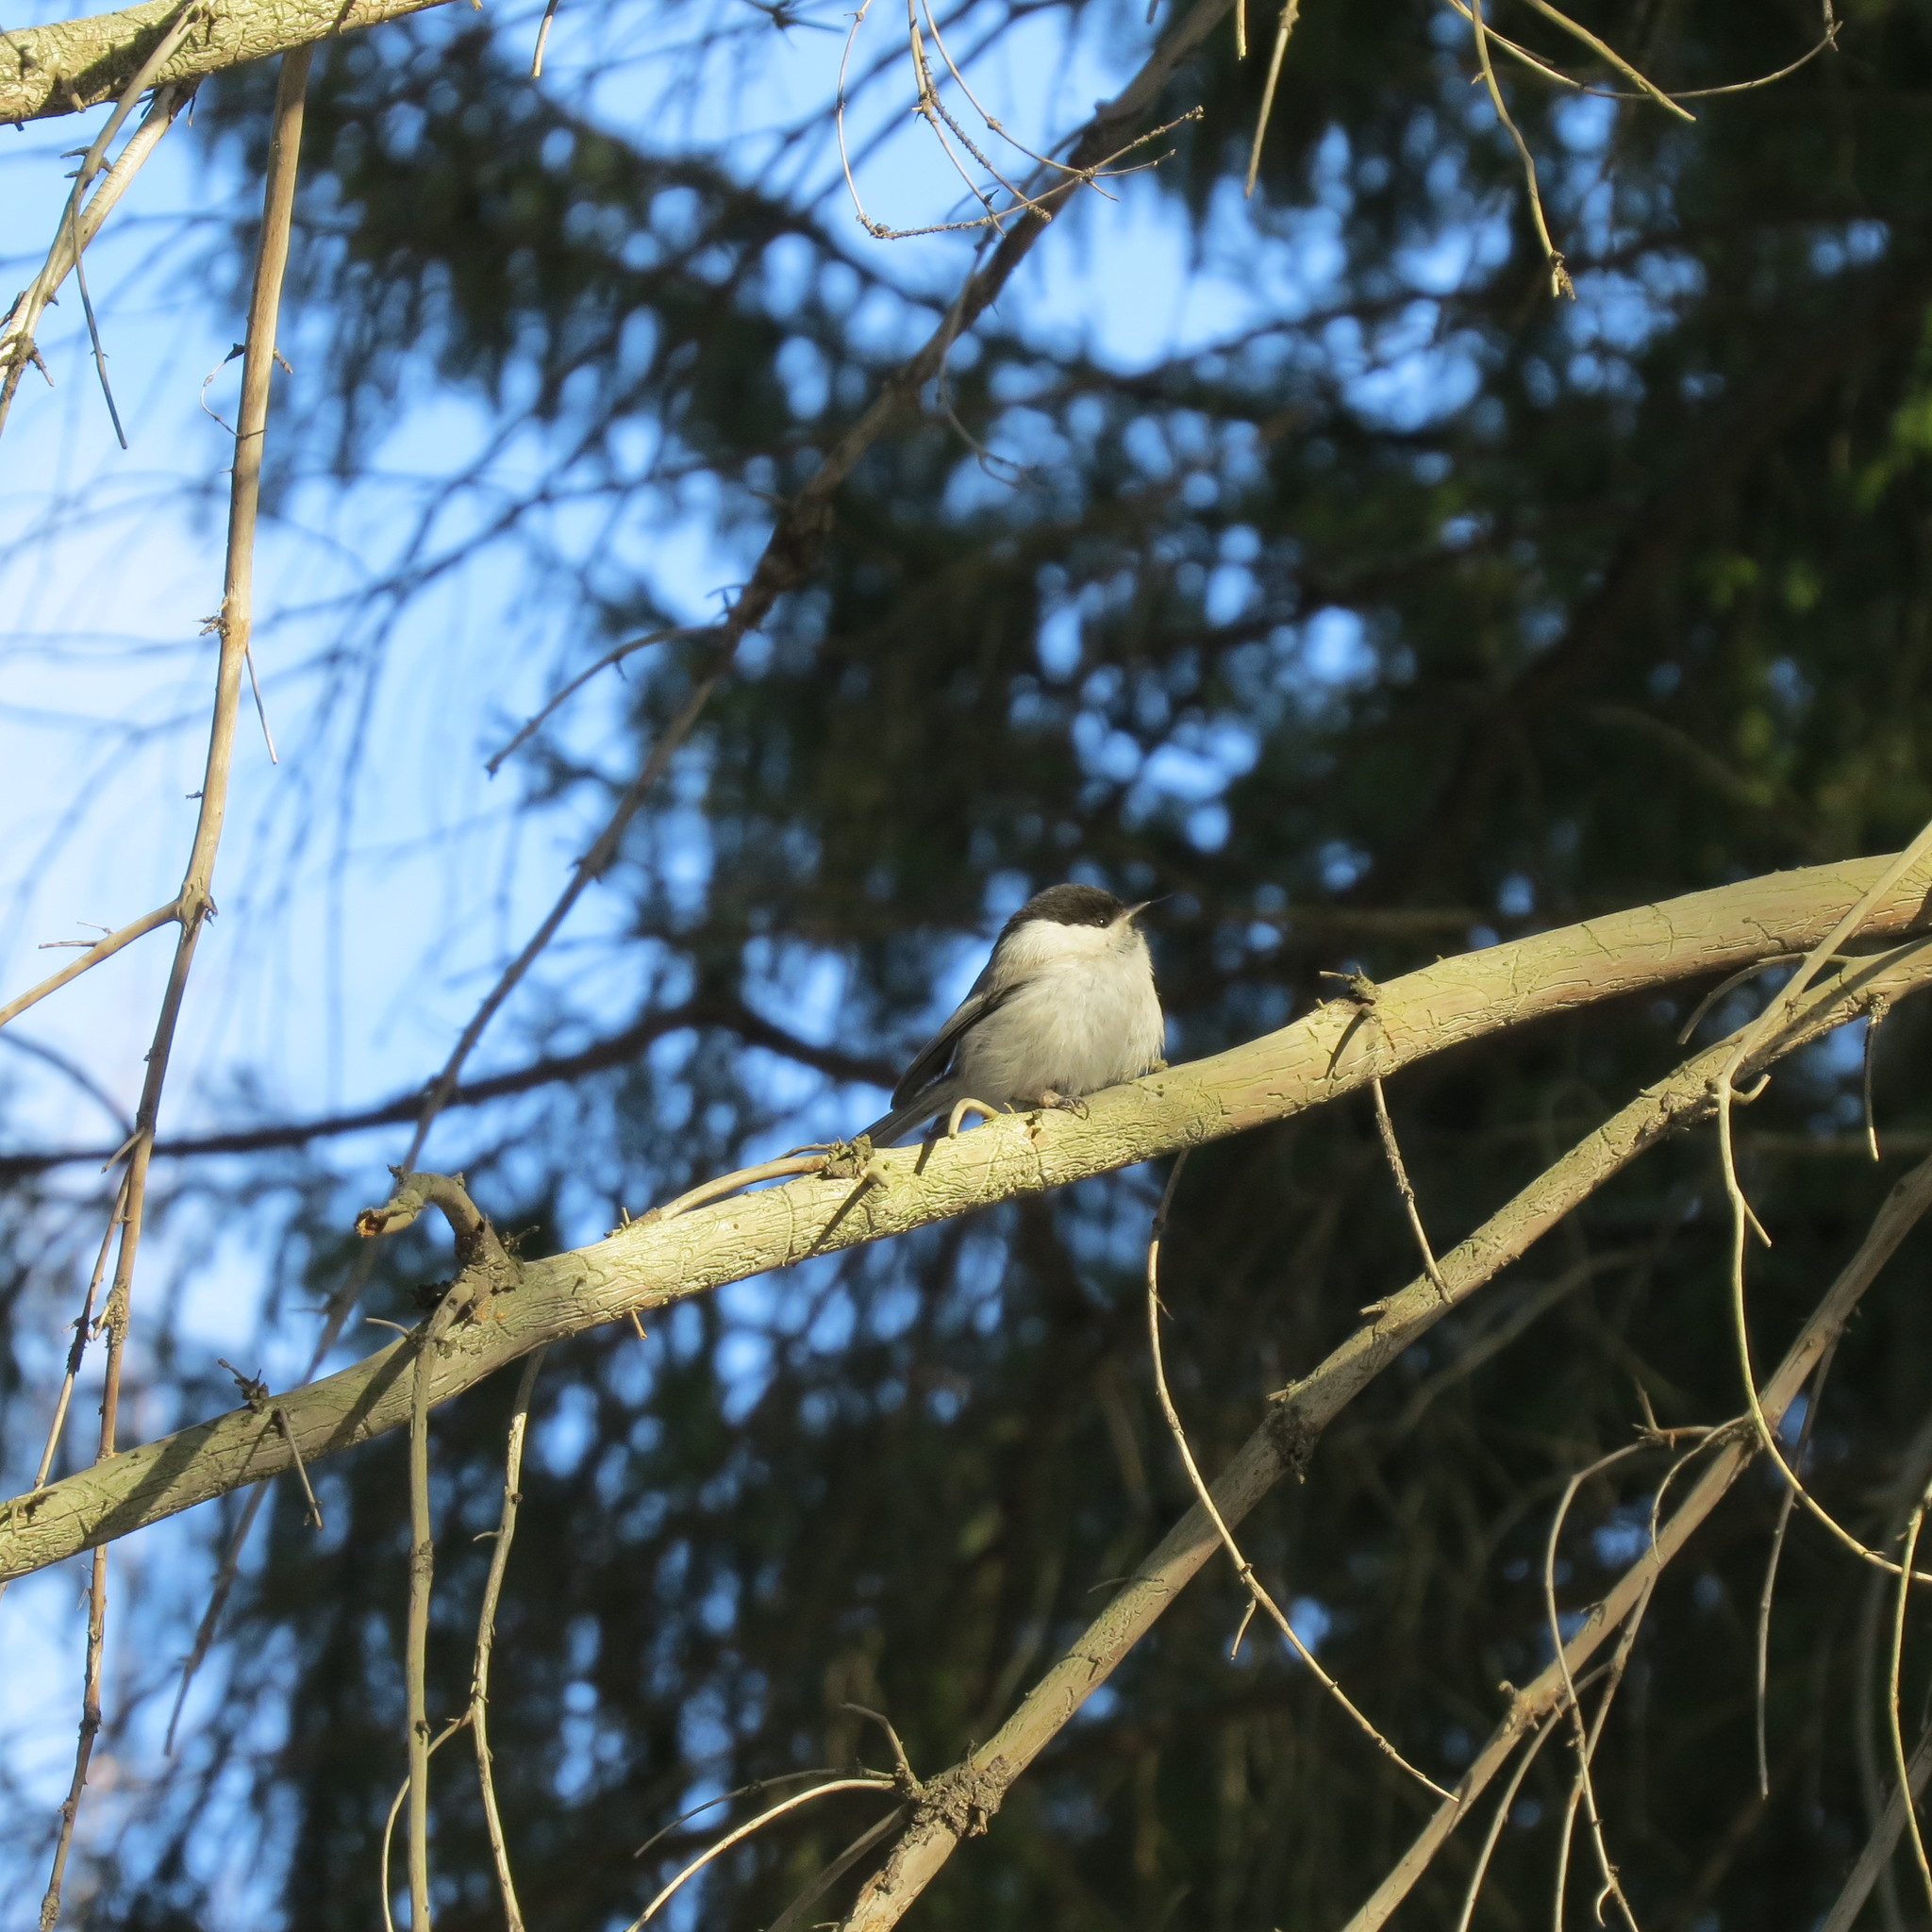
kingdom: Animalia
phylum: Chordata
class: Aves
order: Passeriformes
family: Paridae
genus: Poecile
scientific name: Poecile montanus
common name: Willow tit
